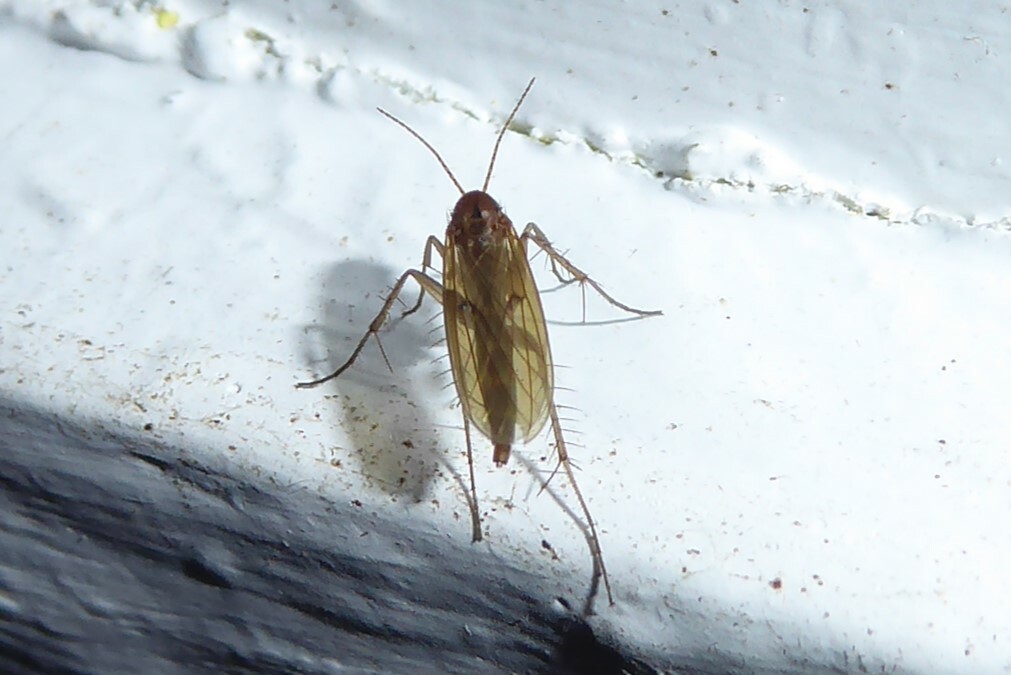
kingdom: Animalia
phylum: Arthropoda
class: Insecta
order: Diptera
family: Mycetophilidae
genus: Mycetophila
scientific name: Mycetophila fagi
